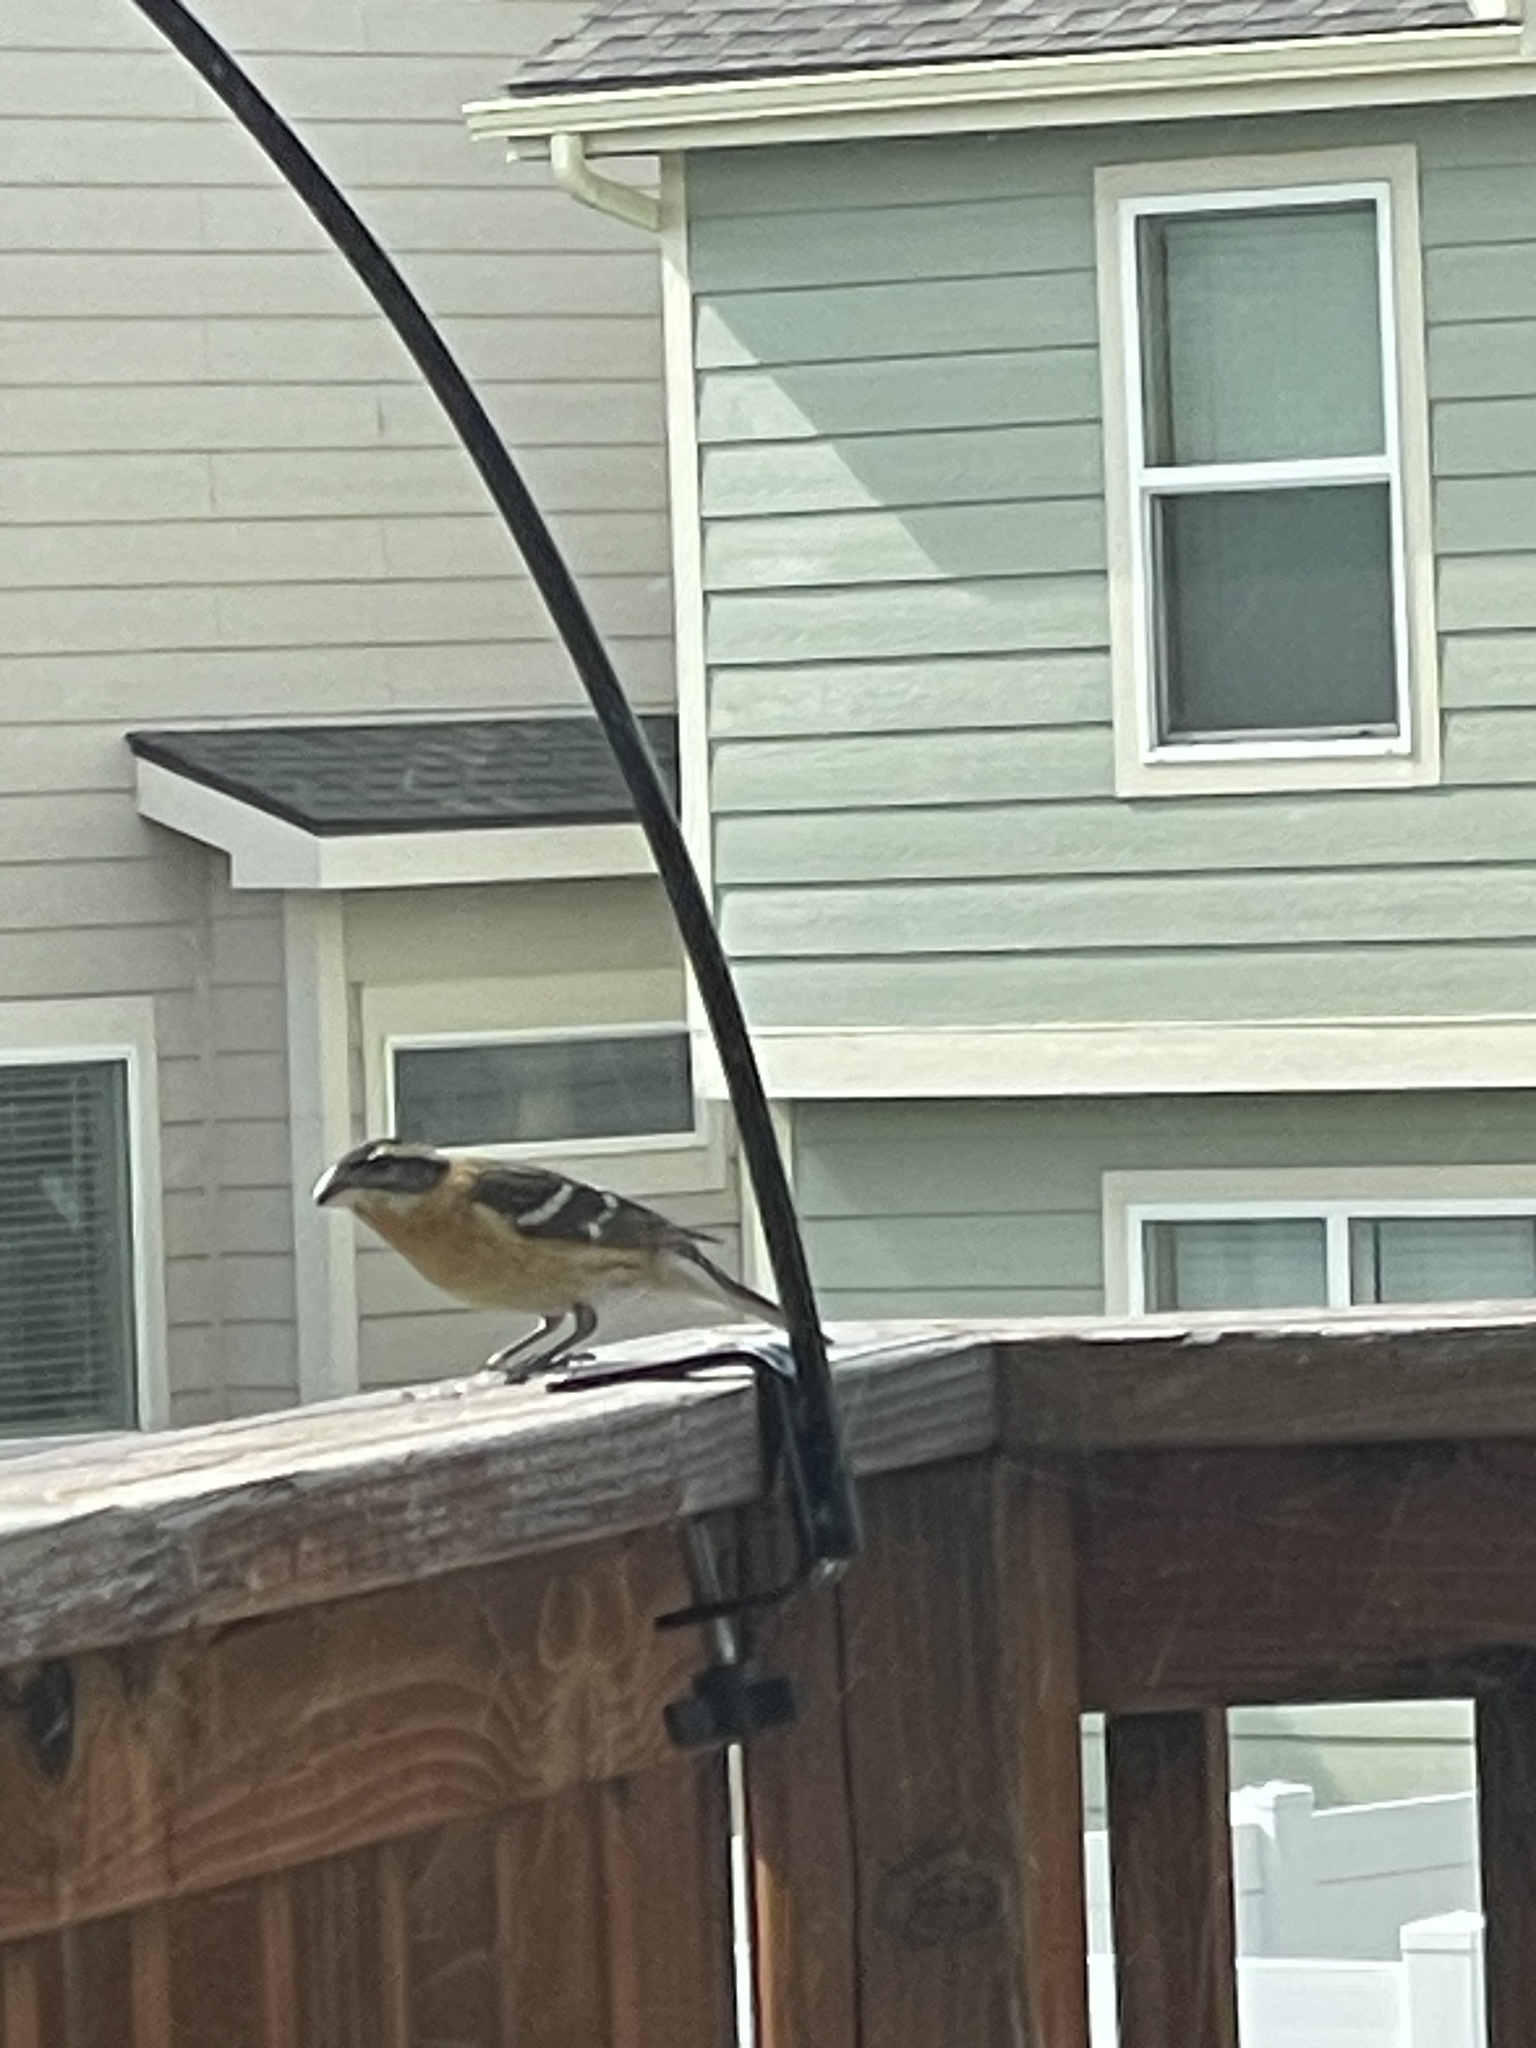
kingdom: Animalia
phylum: Chordata
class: Aves
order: Passeriformes
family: Cardinalidae
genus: Pheucticus
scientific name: Pheucticus melanocephalus
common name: Black-headed grosbeak
